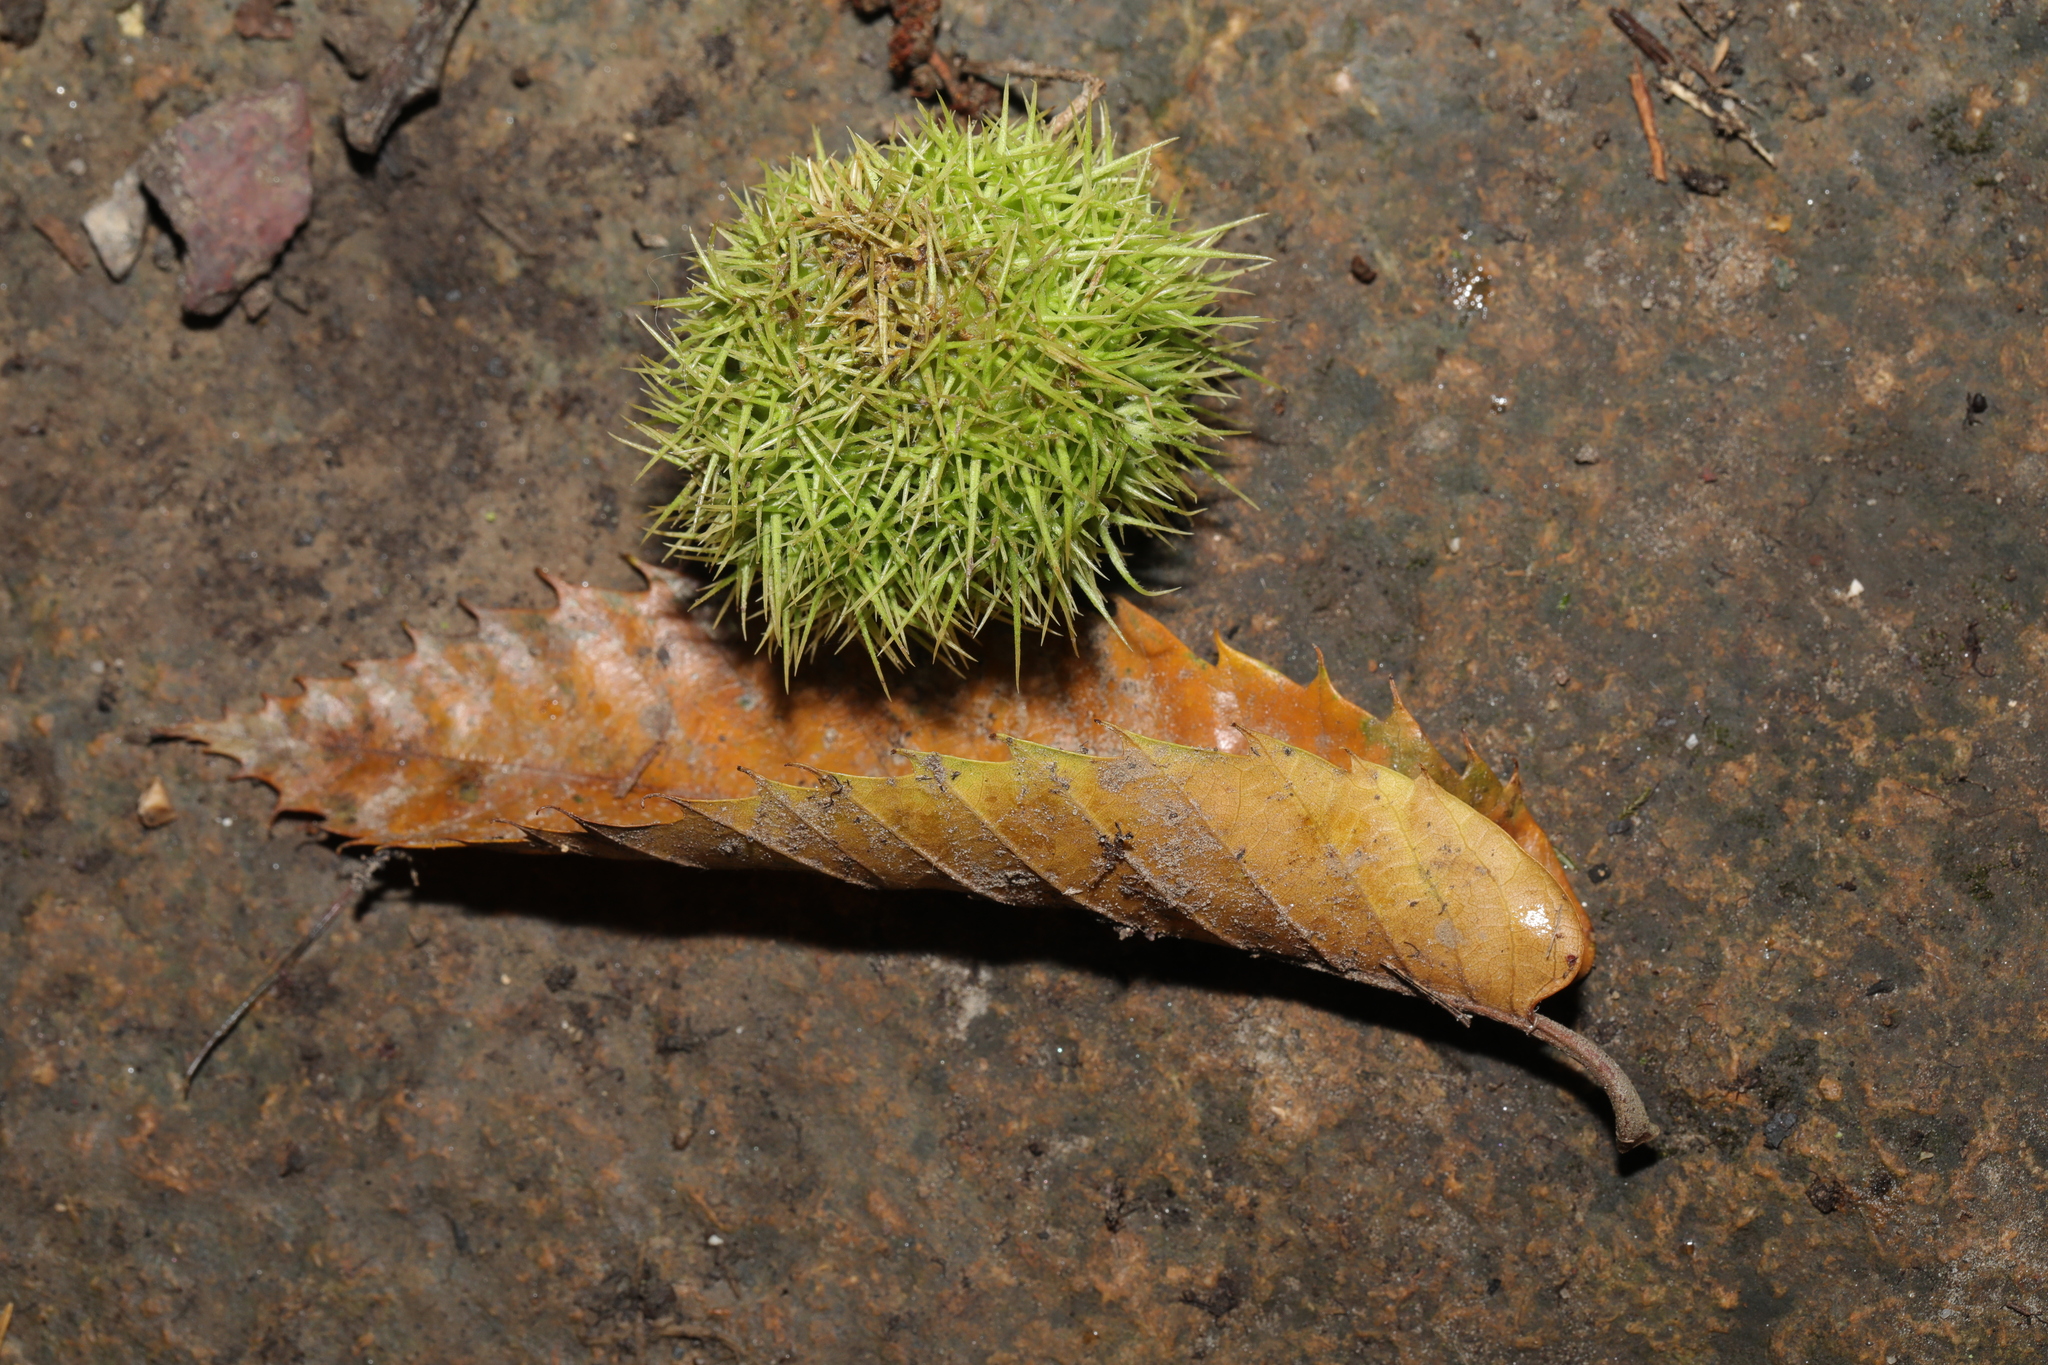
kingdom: Plantae
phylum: Tracheophyta
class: Magnoliopsida
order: Fagales
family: Fagaceae
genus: Castanea
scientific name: Castanea sativa
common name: Sweet chestnut
